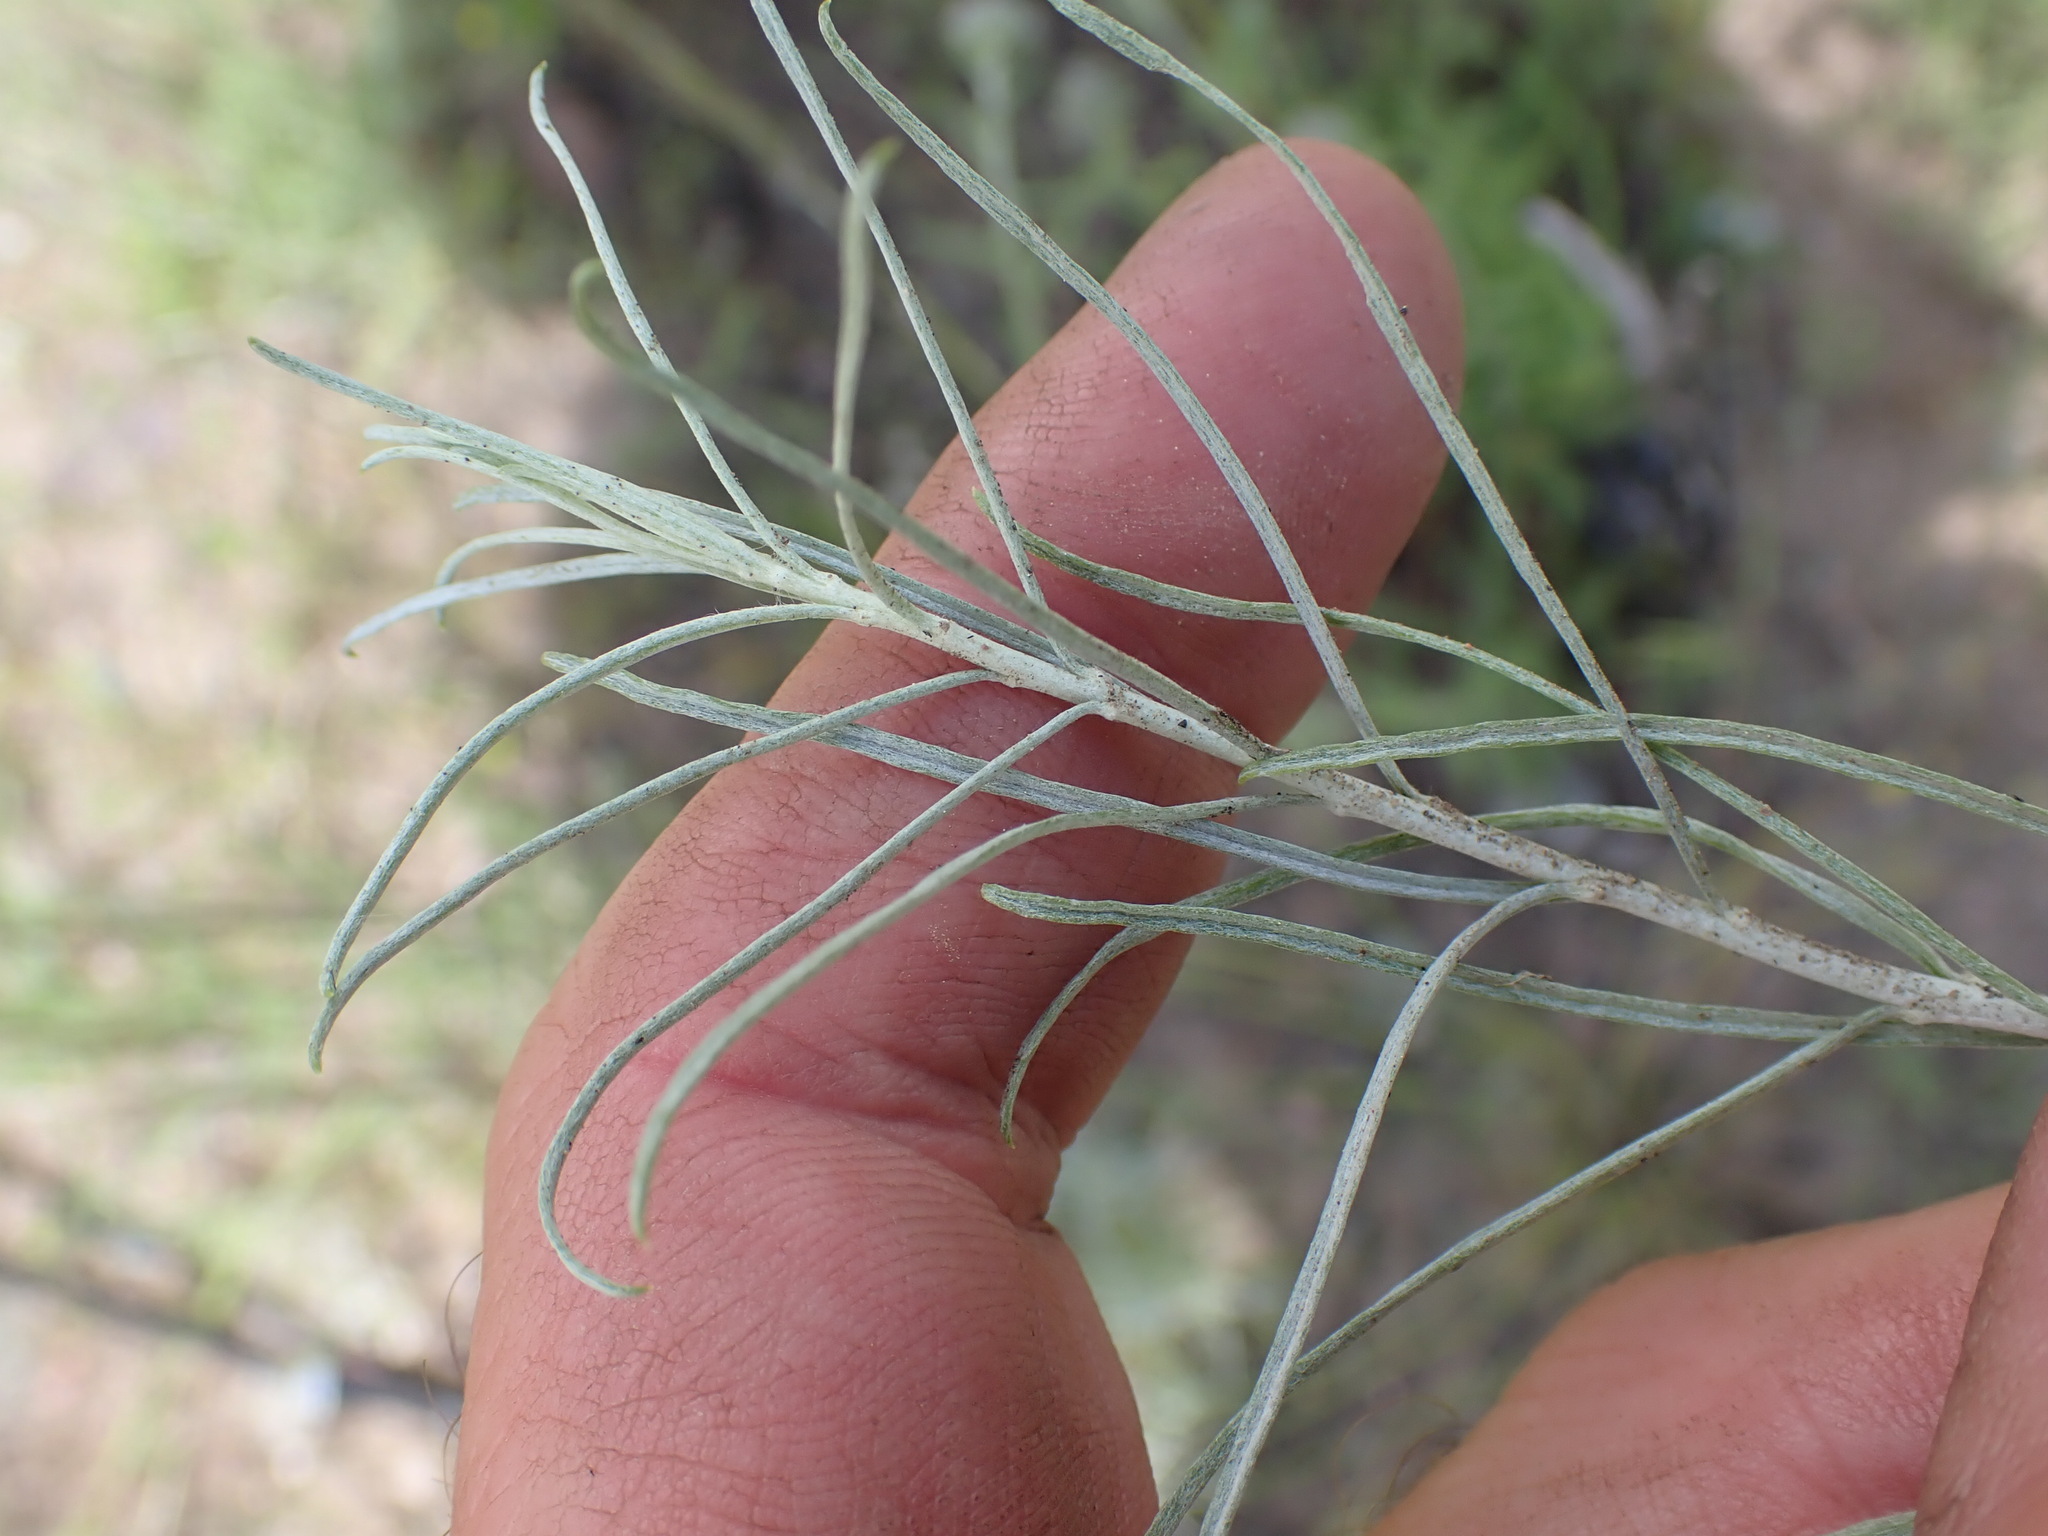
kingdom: Plantae
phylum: Tracheophyta
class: Magnoliopsida
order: Asterales
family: Asteraceae
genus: Ericameria
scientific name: Ericameria nauseosa
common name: Rubber rabbitbrush
